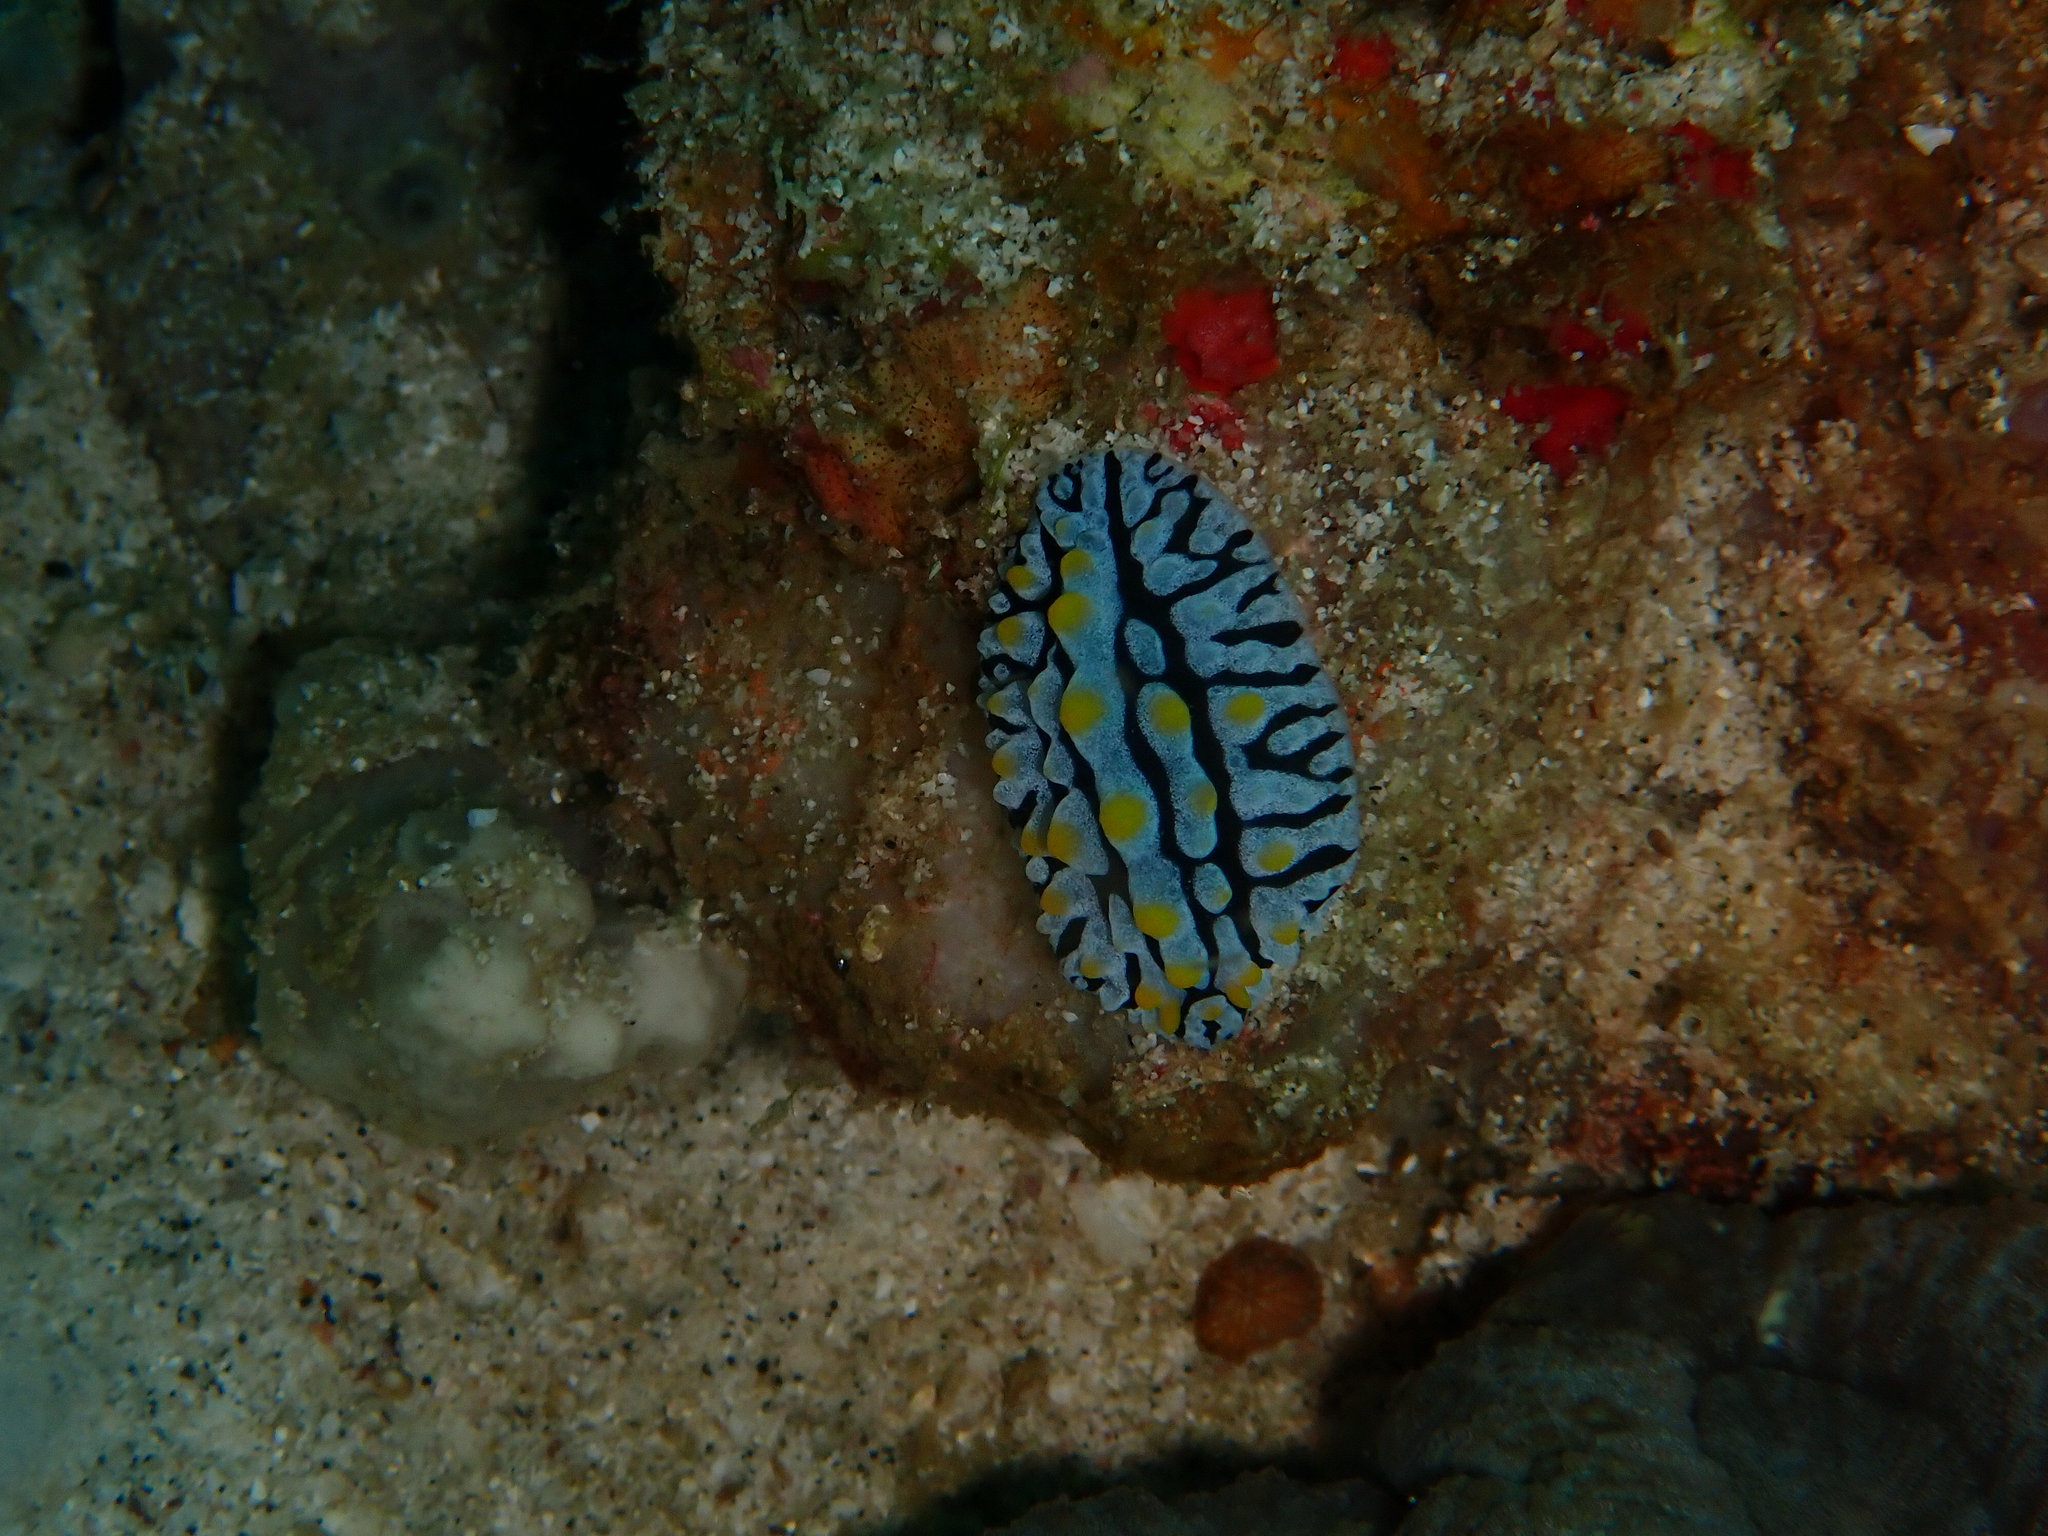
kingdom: Animalia
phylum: Mollusca
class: Gastropoda
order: Nudibranchia
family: Phyllidiidae
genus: Phyllidia
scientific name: Phyllidia varicosa
